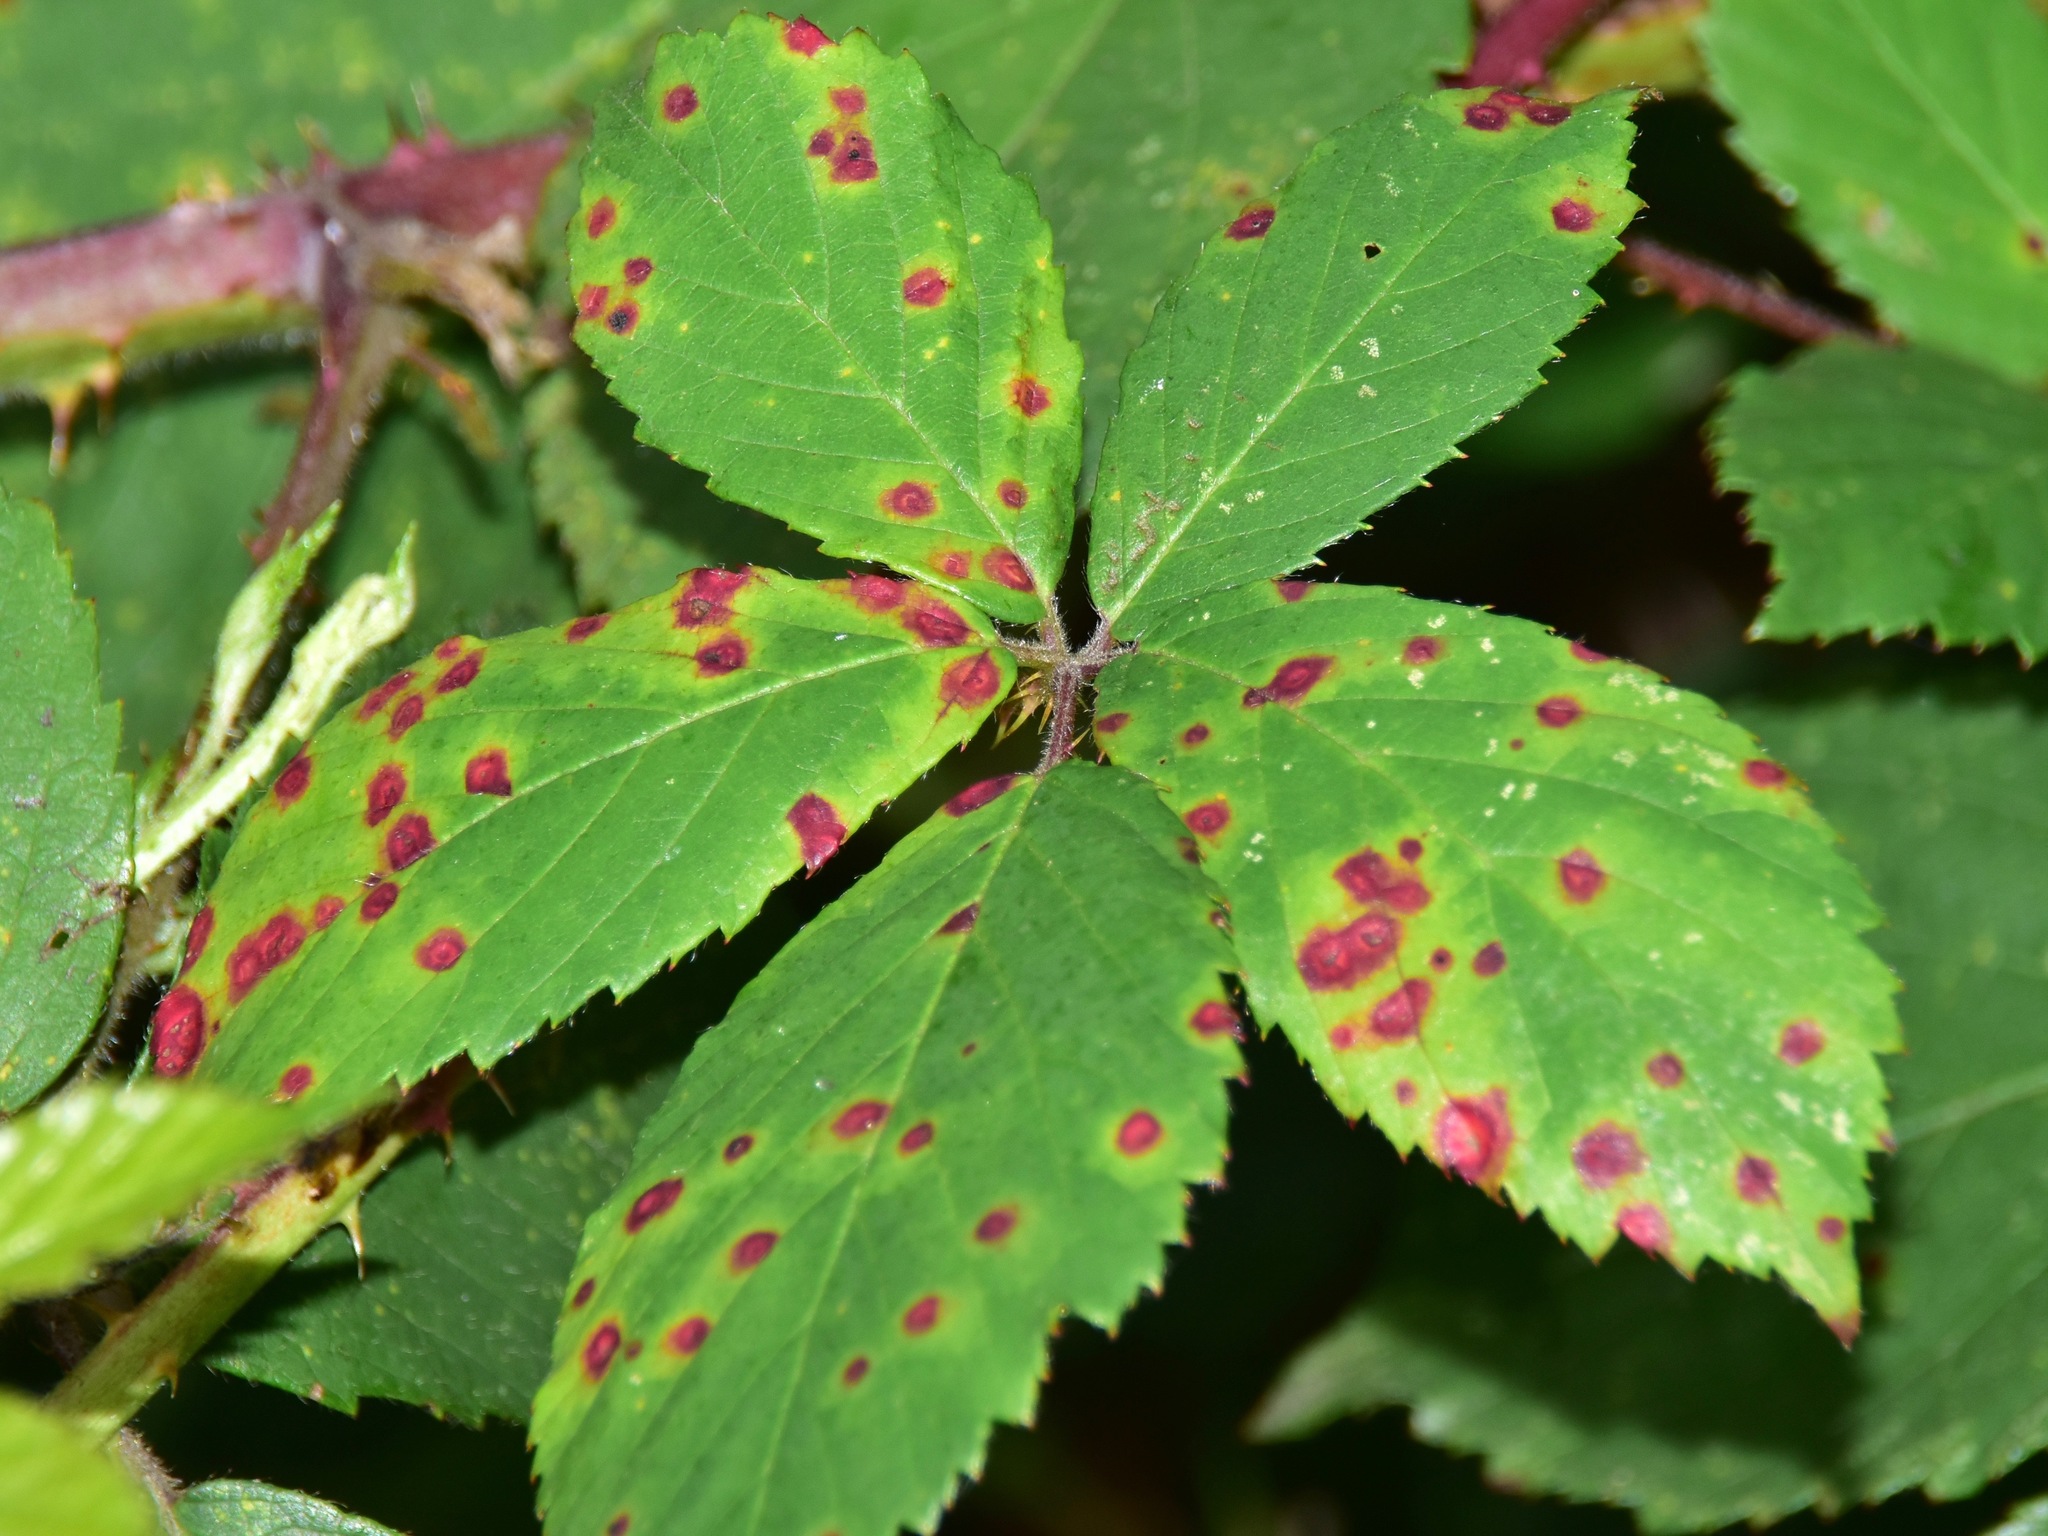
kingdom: Fungi
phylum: Basidiomycota
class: Pucciniomycetes
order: Pucciniales
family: Phragmidiaceae
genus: Phragmidium
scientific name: Phragmidium violaceum
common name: Violet bramble rust
